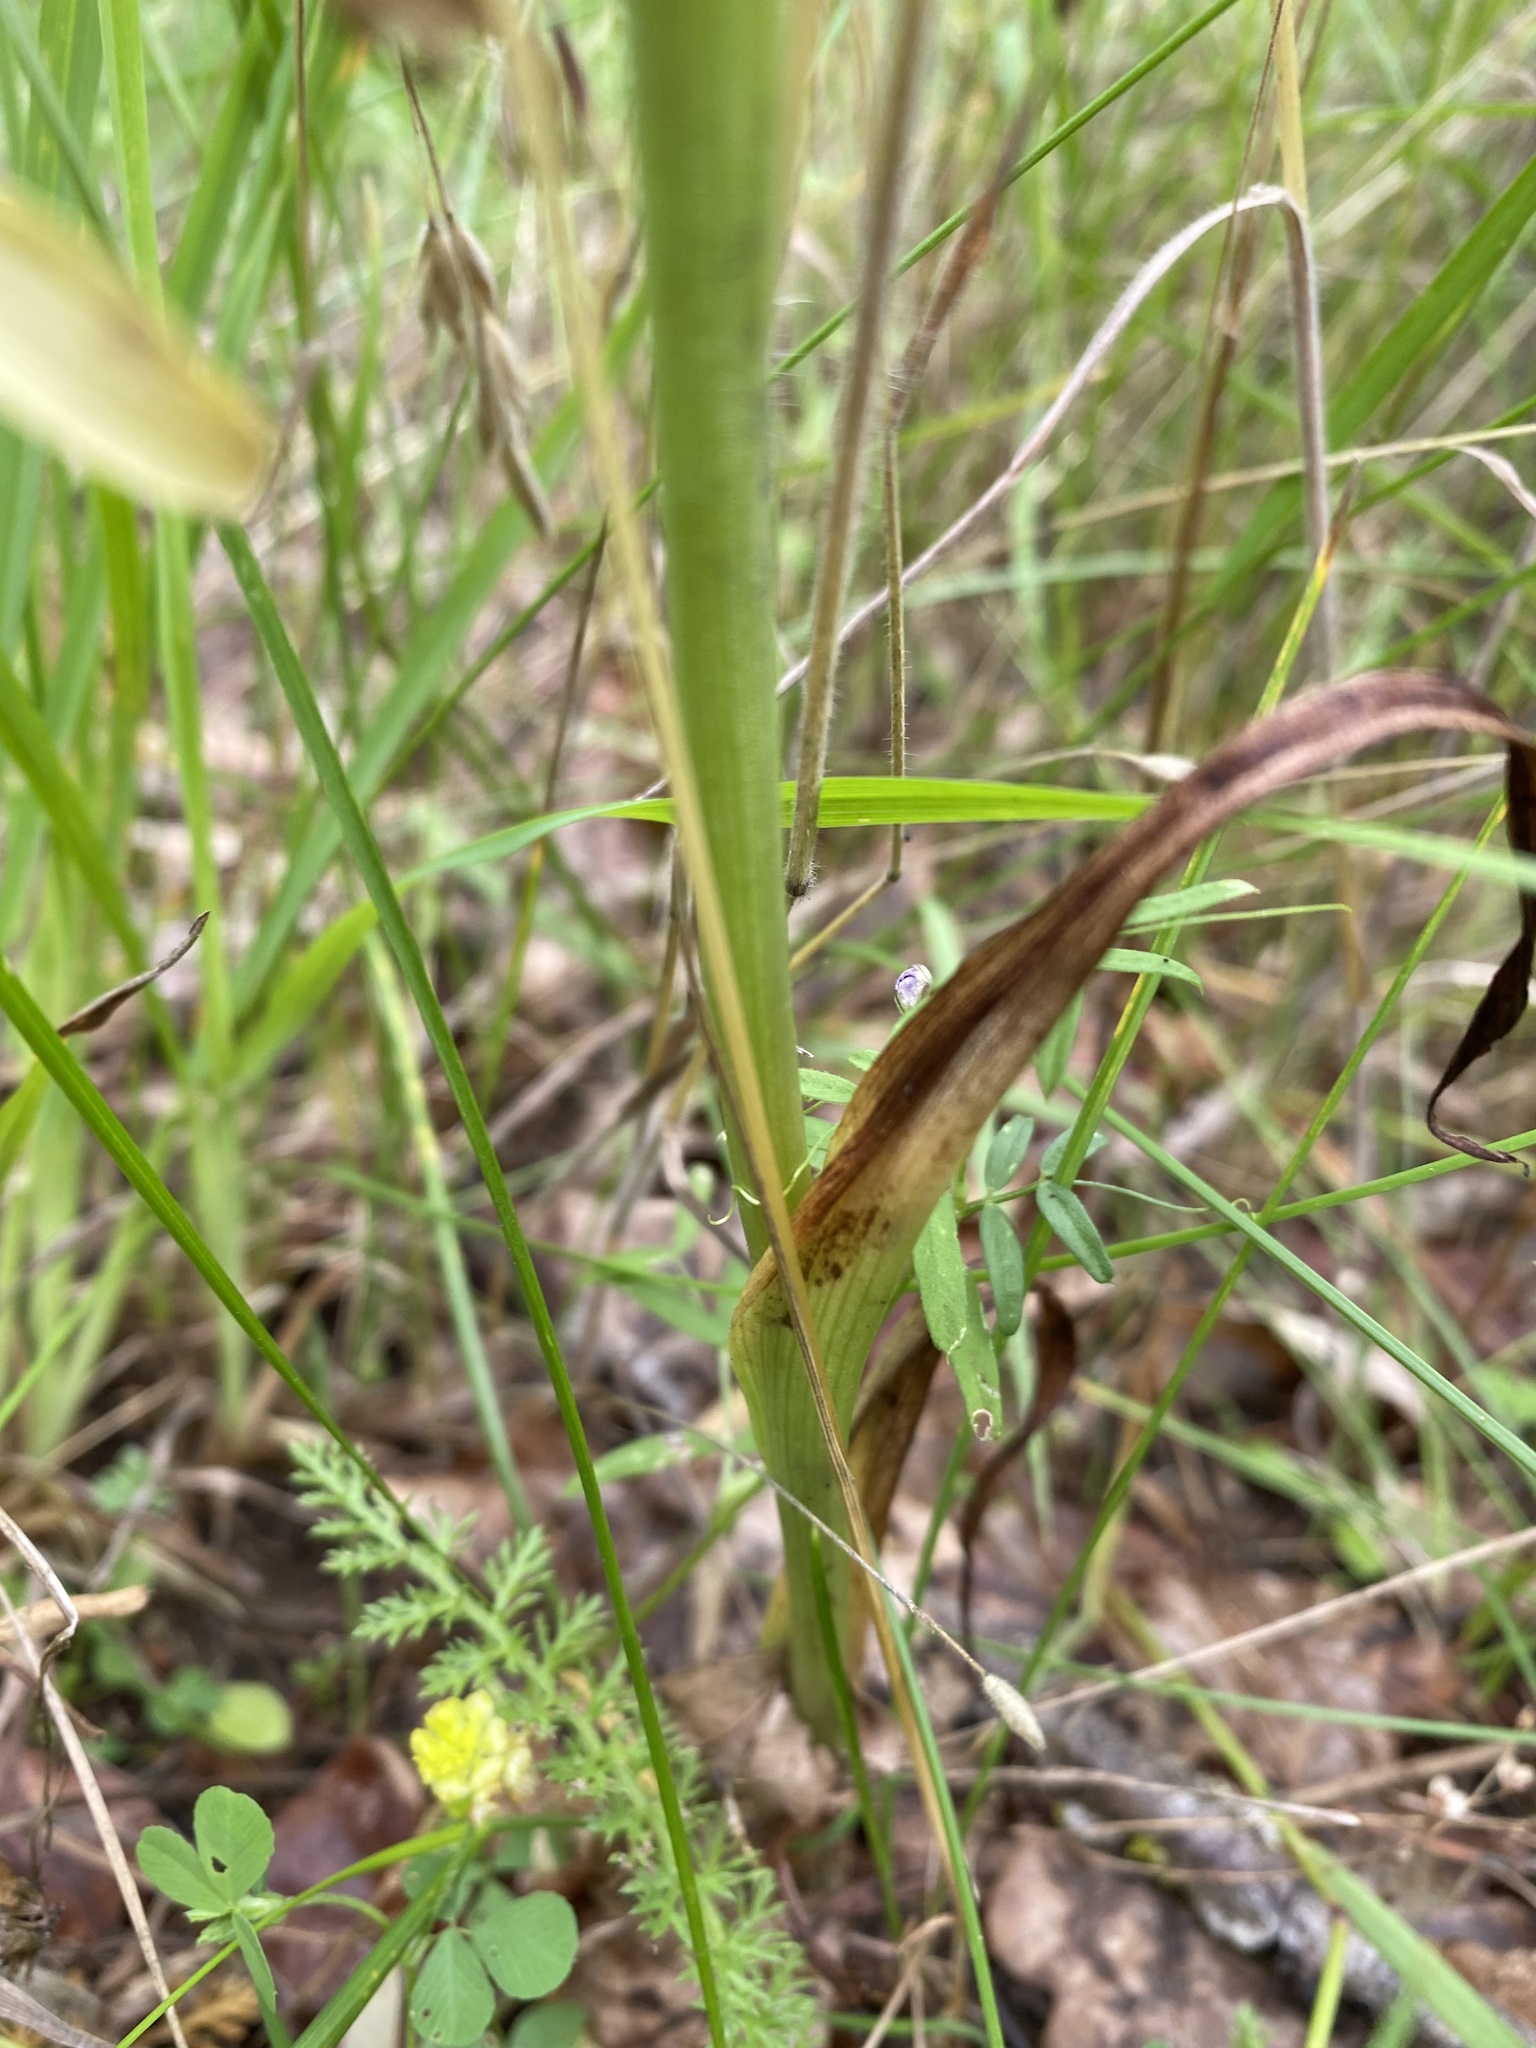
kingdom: Plantae
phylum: Tracheophyta
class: Liliopsida
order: Asparagales
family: Orchidaceae
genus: Anacamptis
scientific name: Anacamptis pyramidalis
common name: Pyramidal orchid
